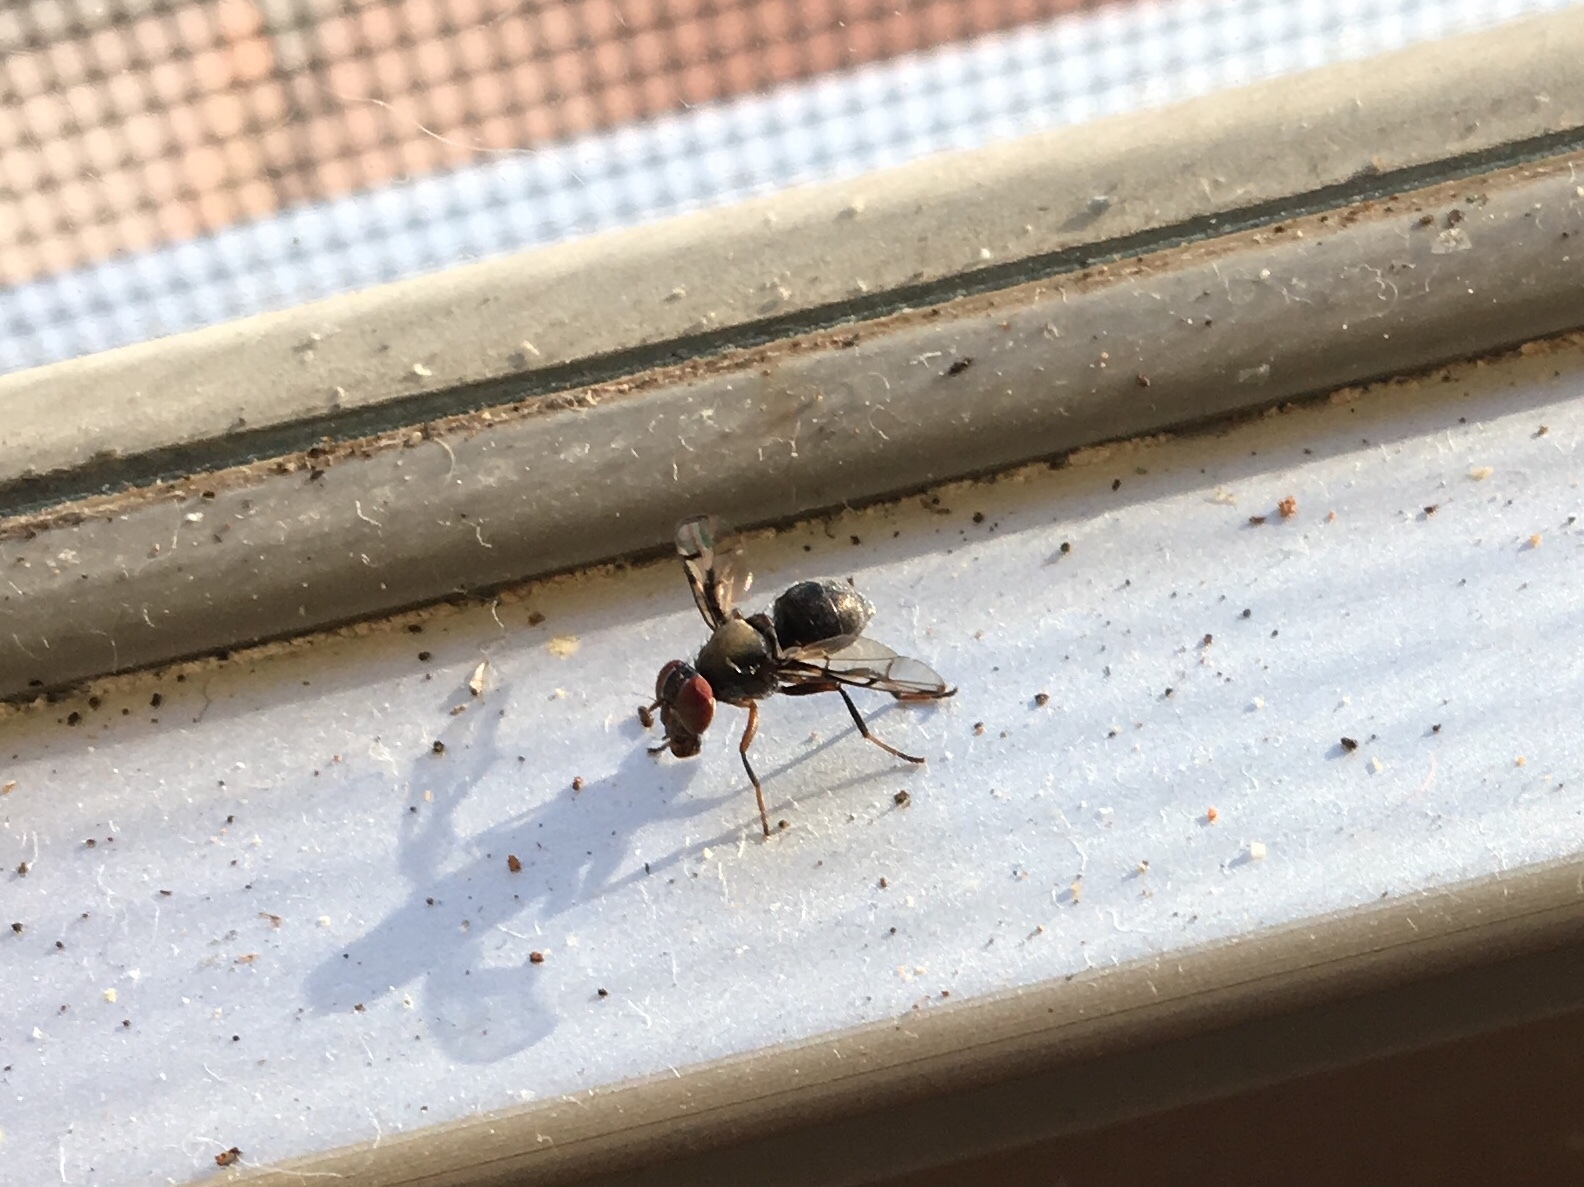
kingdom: Animalia
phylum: Arthropoda
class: Insecta
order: Diptera
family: Platystomatidae
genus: Pogonortalis
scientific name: Pogonortalis doclea
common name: Boatman fly
